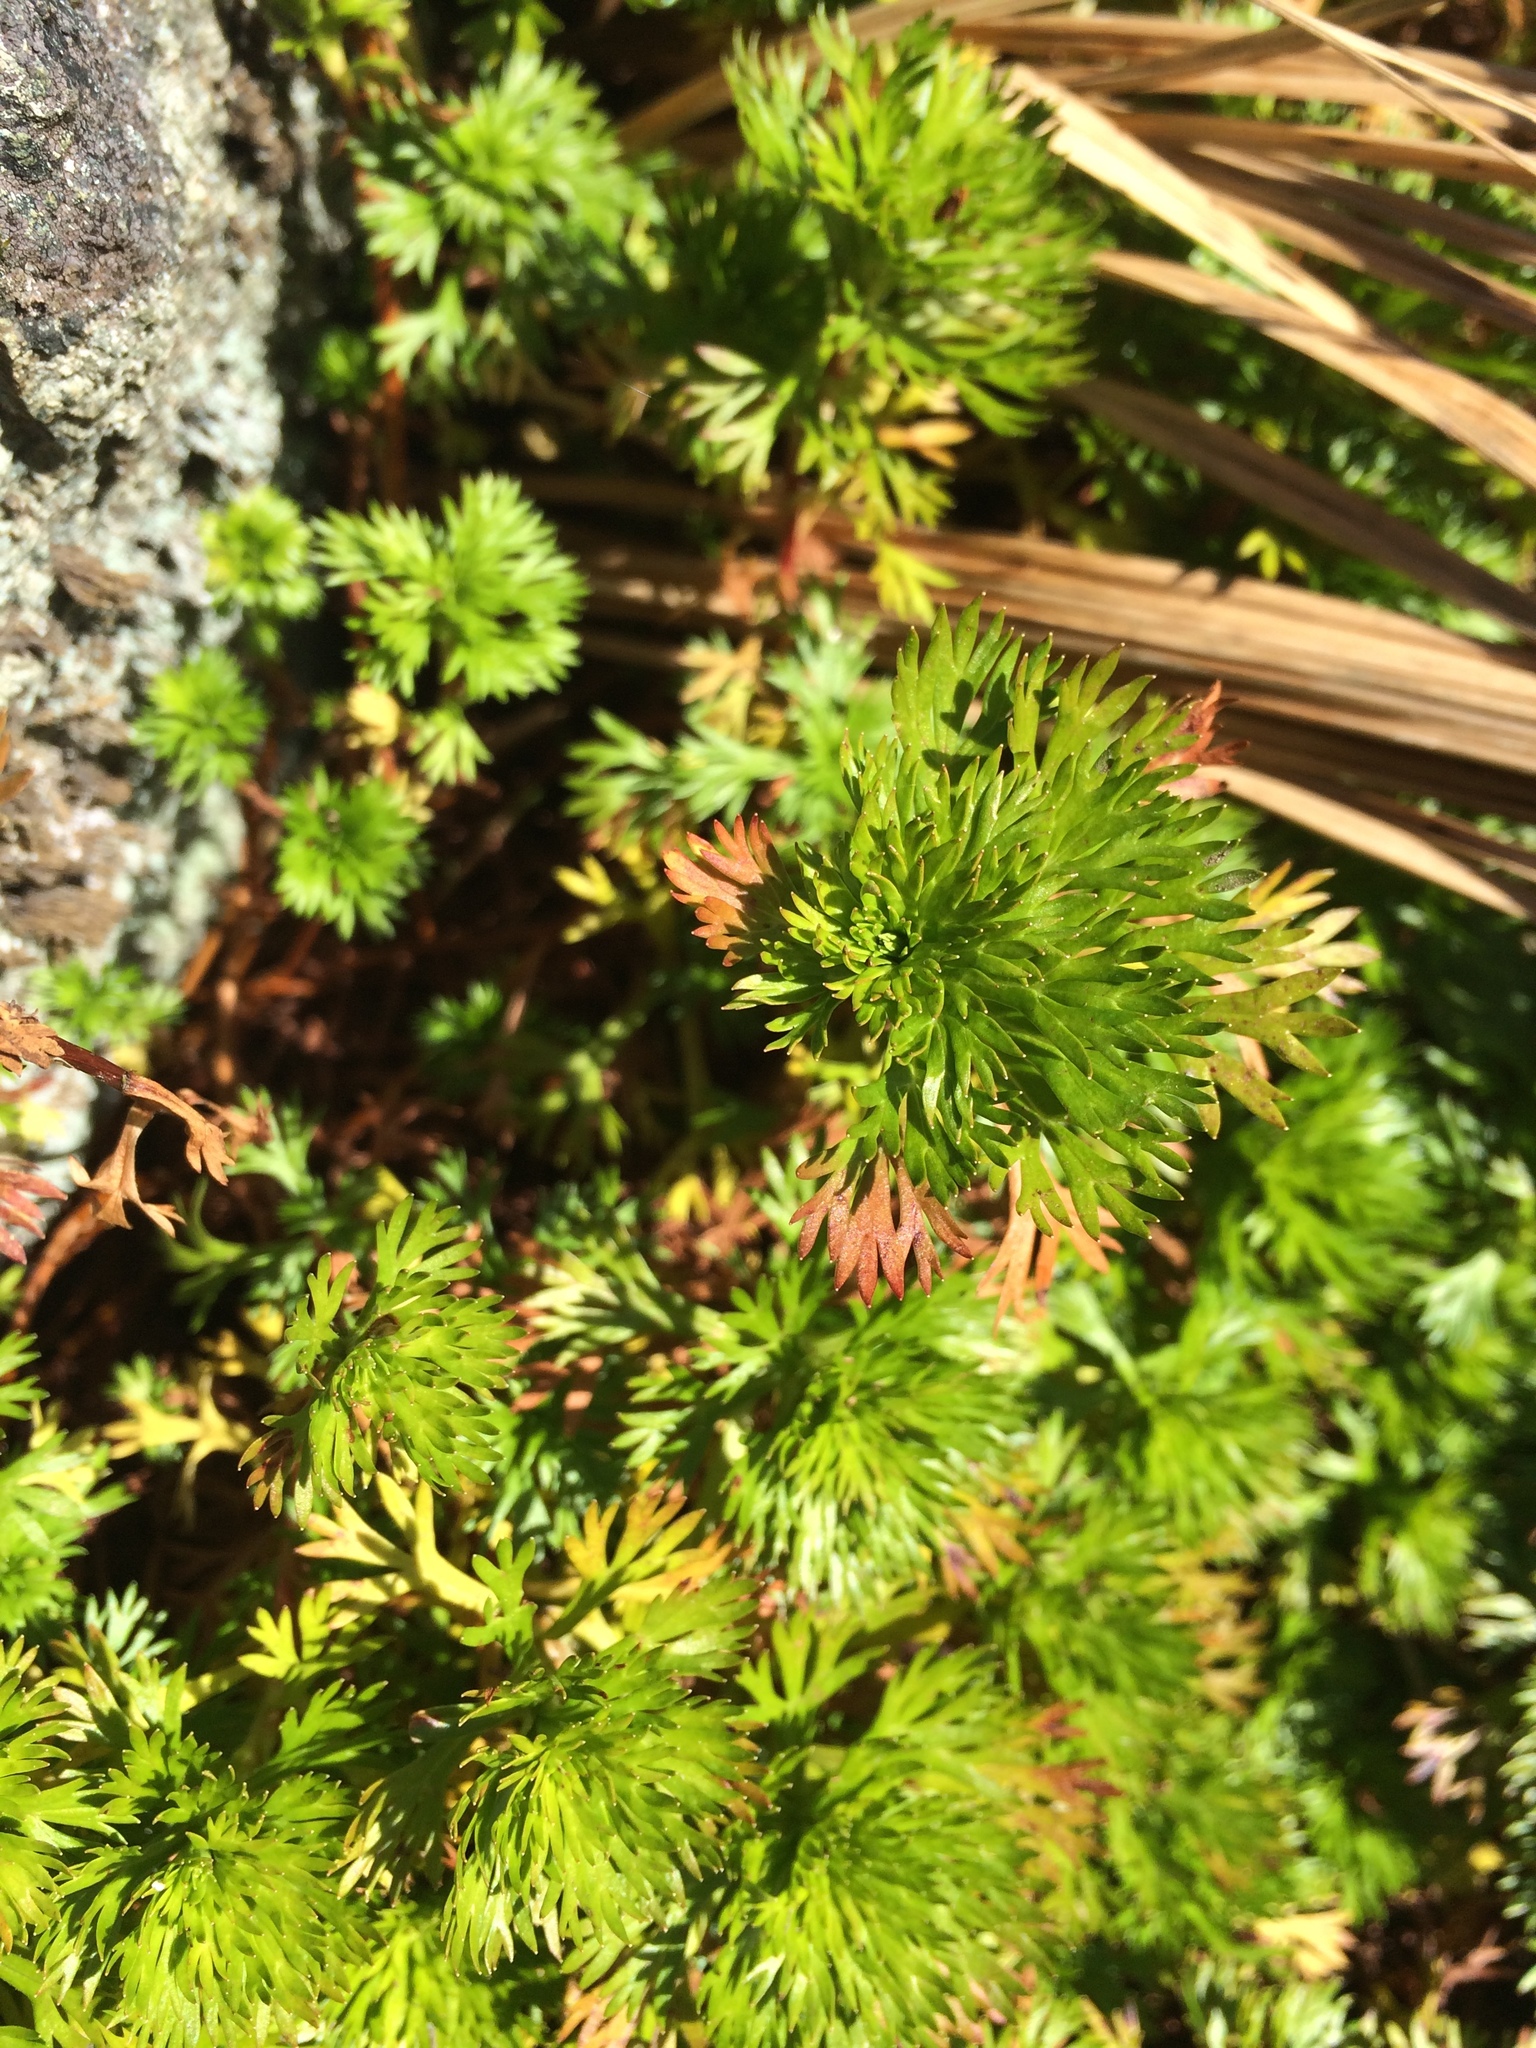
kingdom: Plantae
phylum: Tracheophyta
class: Magnoliopsida
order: Rosales
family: Rosaceae
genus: Luetkea
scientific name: Luetkea pectinata
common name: Partridgefoot
